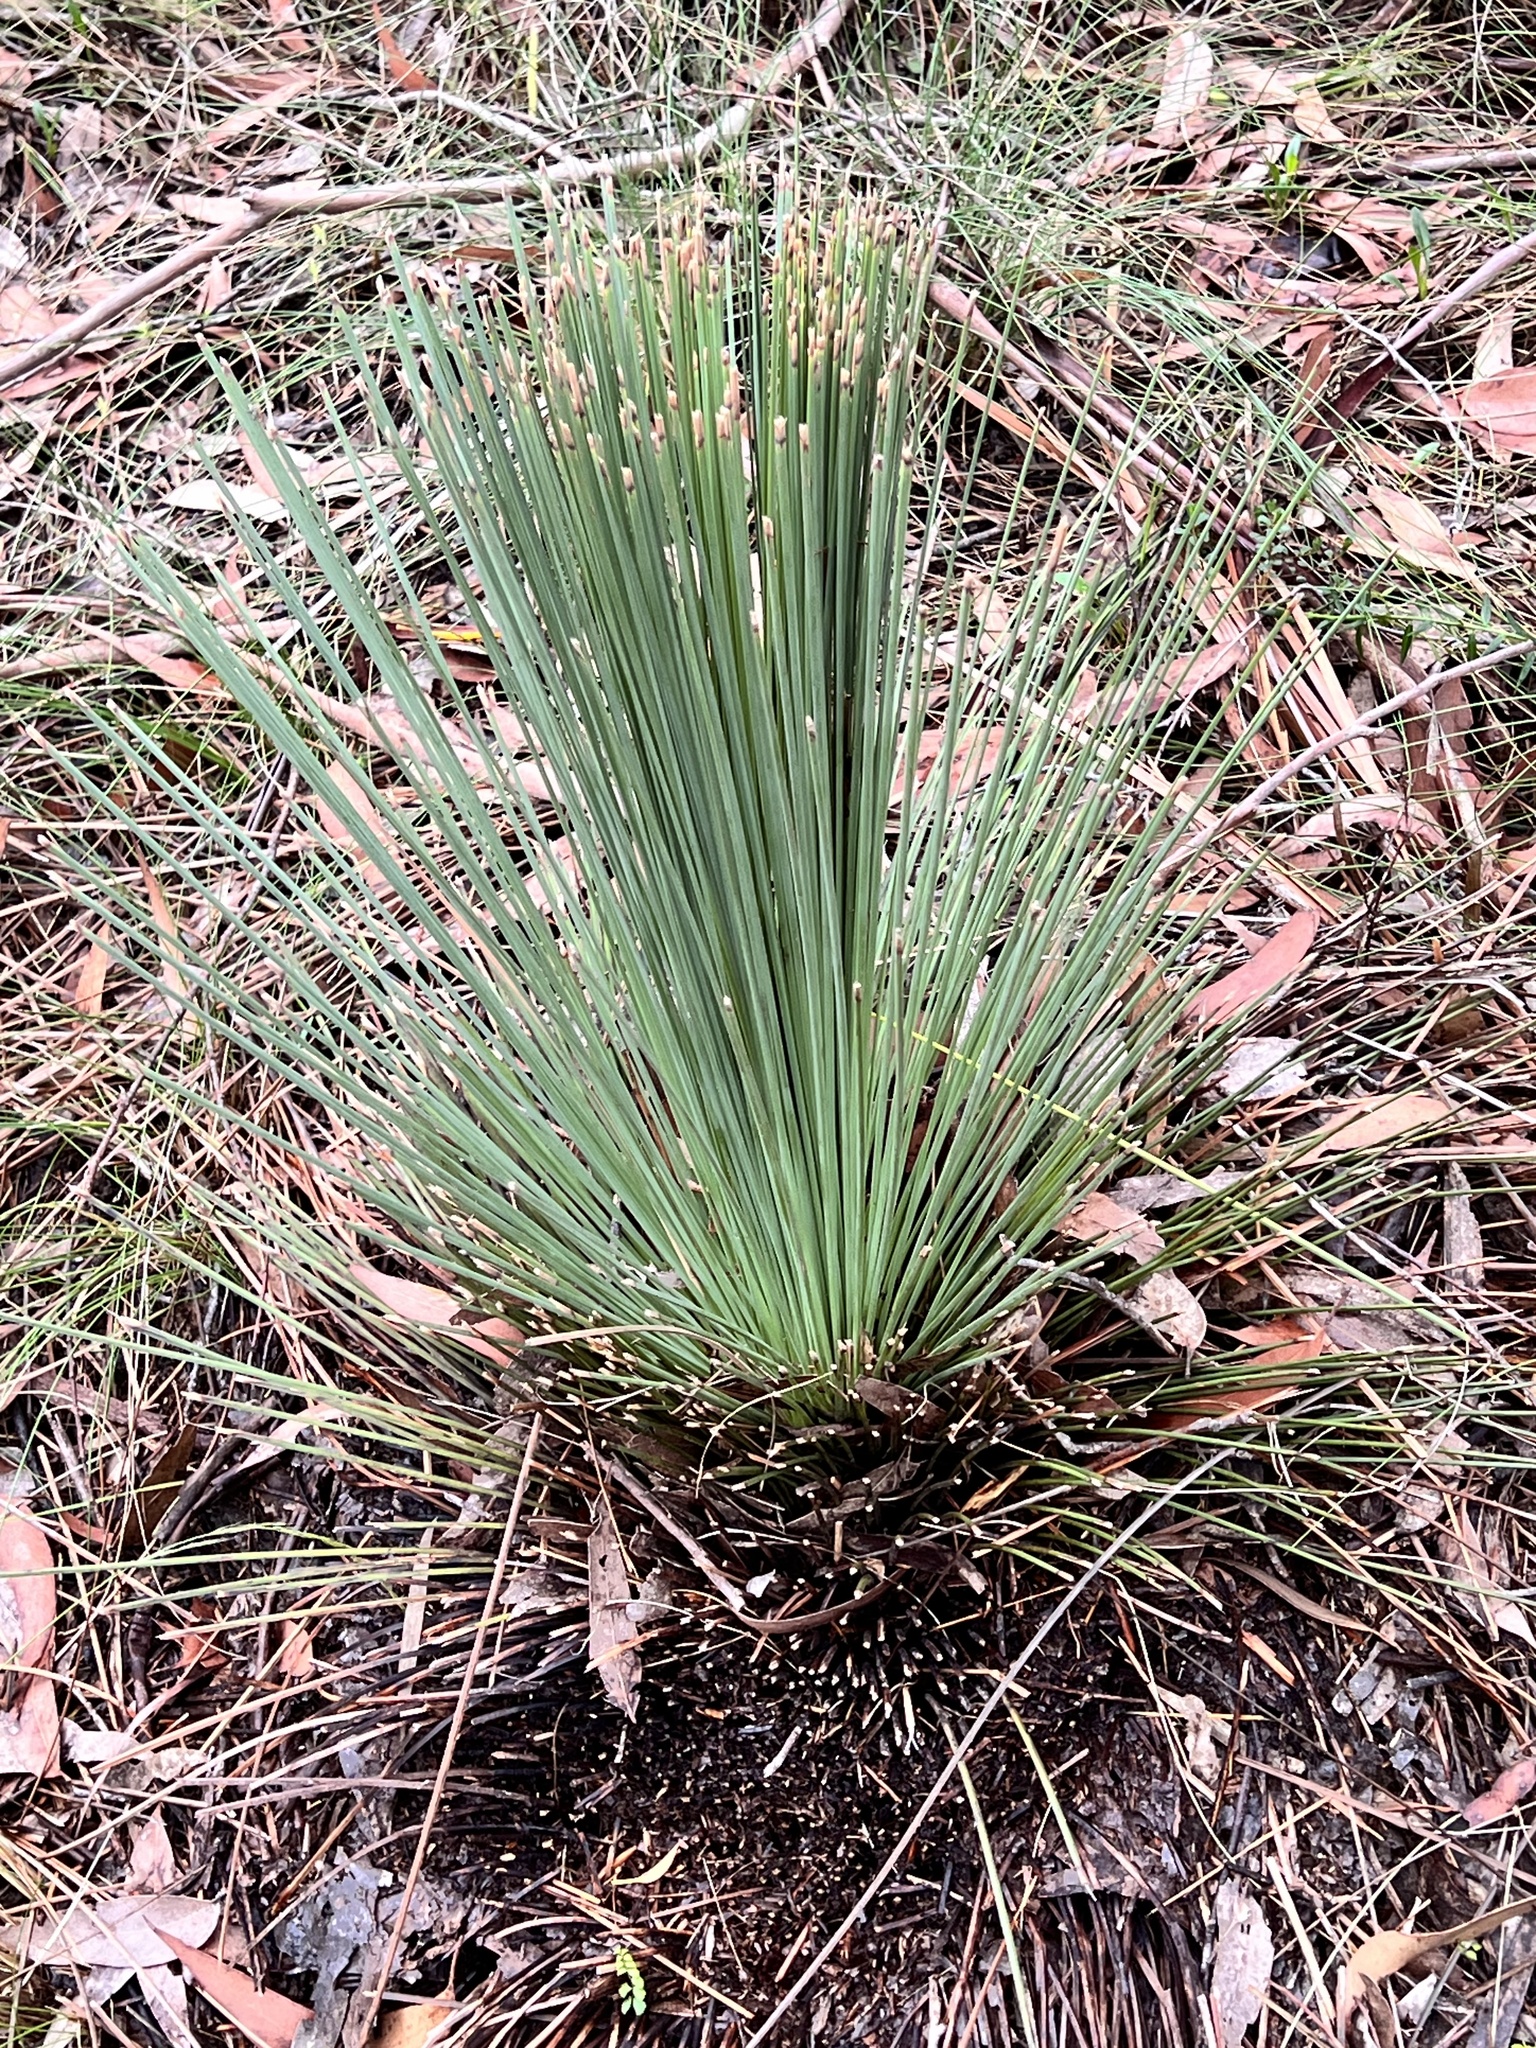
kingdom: Plantae
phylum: Tracheophyta
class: Liliopsida
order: Asparagales
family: Asphodelaceae
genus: Xanthorrhoea
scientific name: Xanthorrhoea johnsonii
